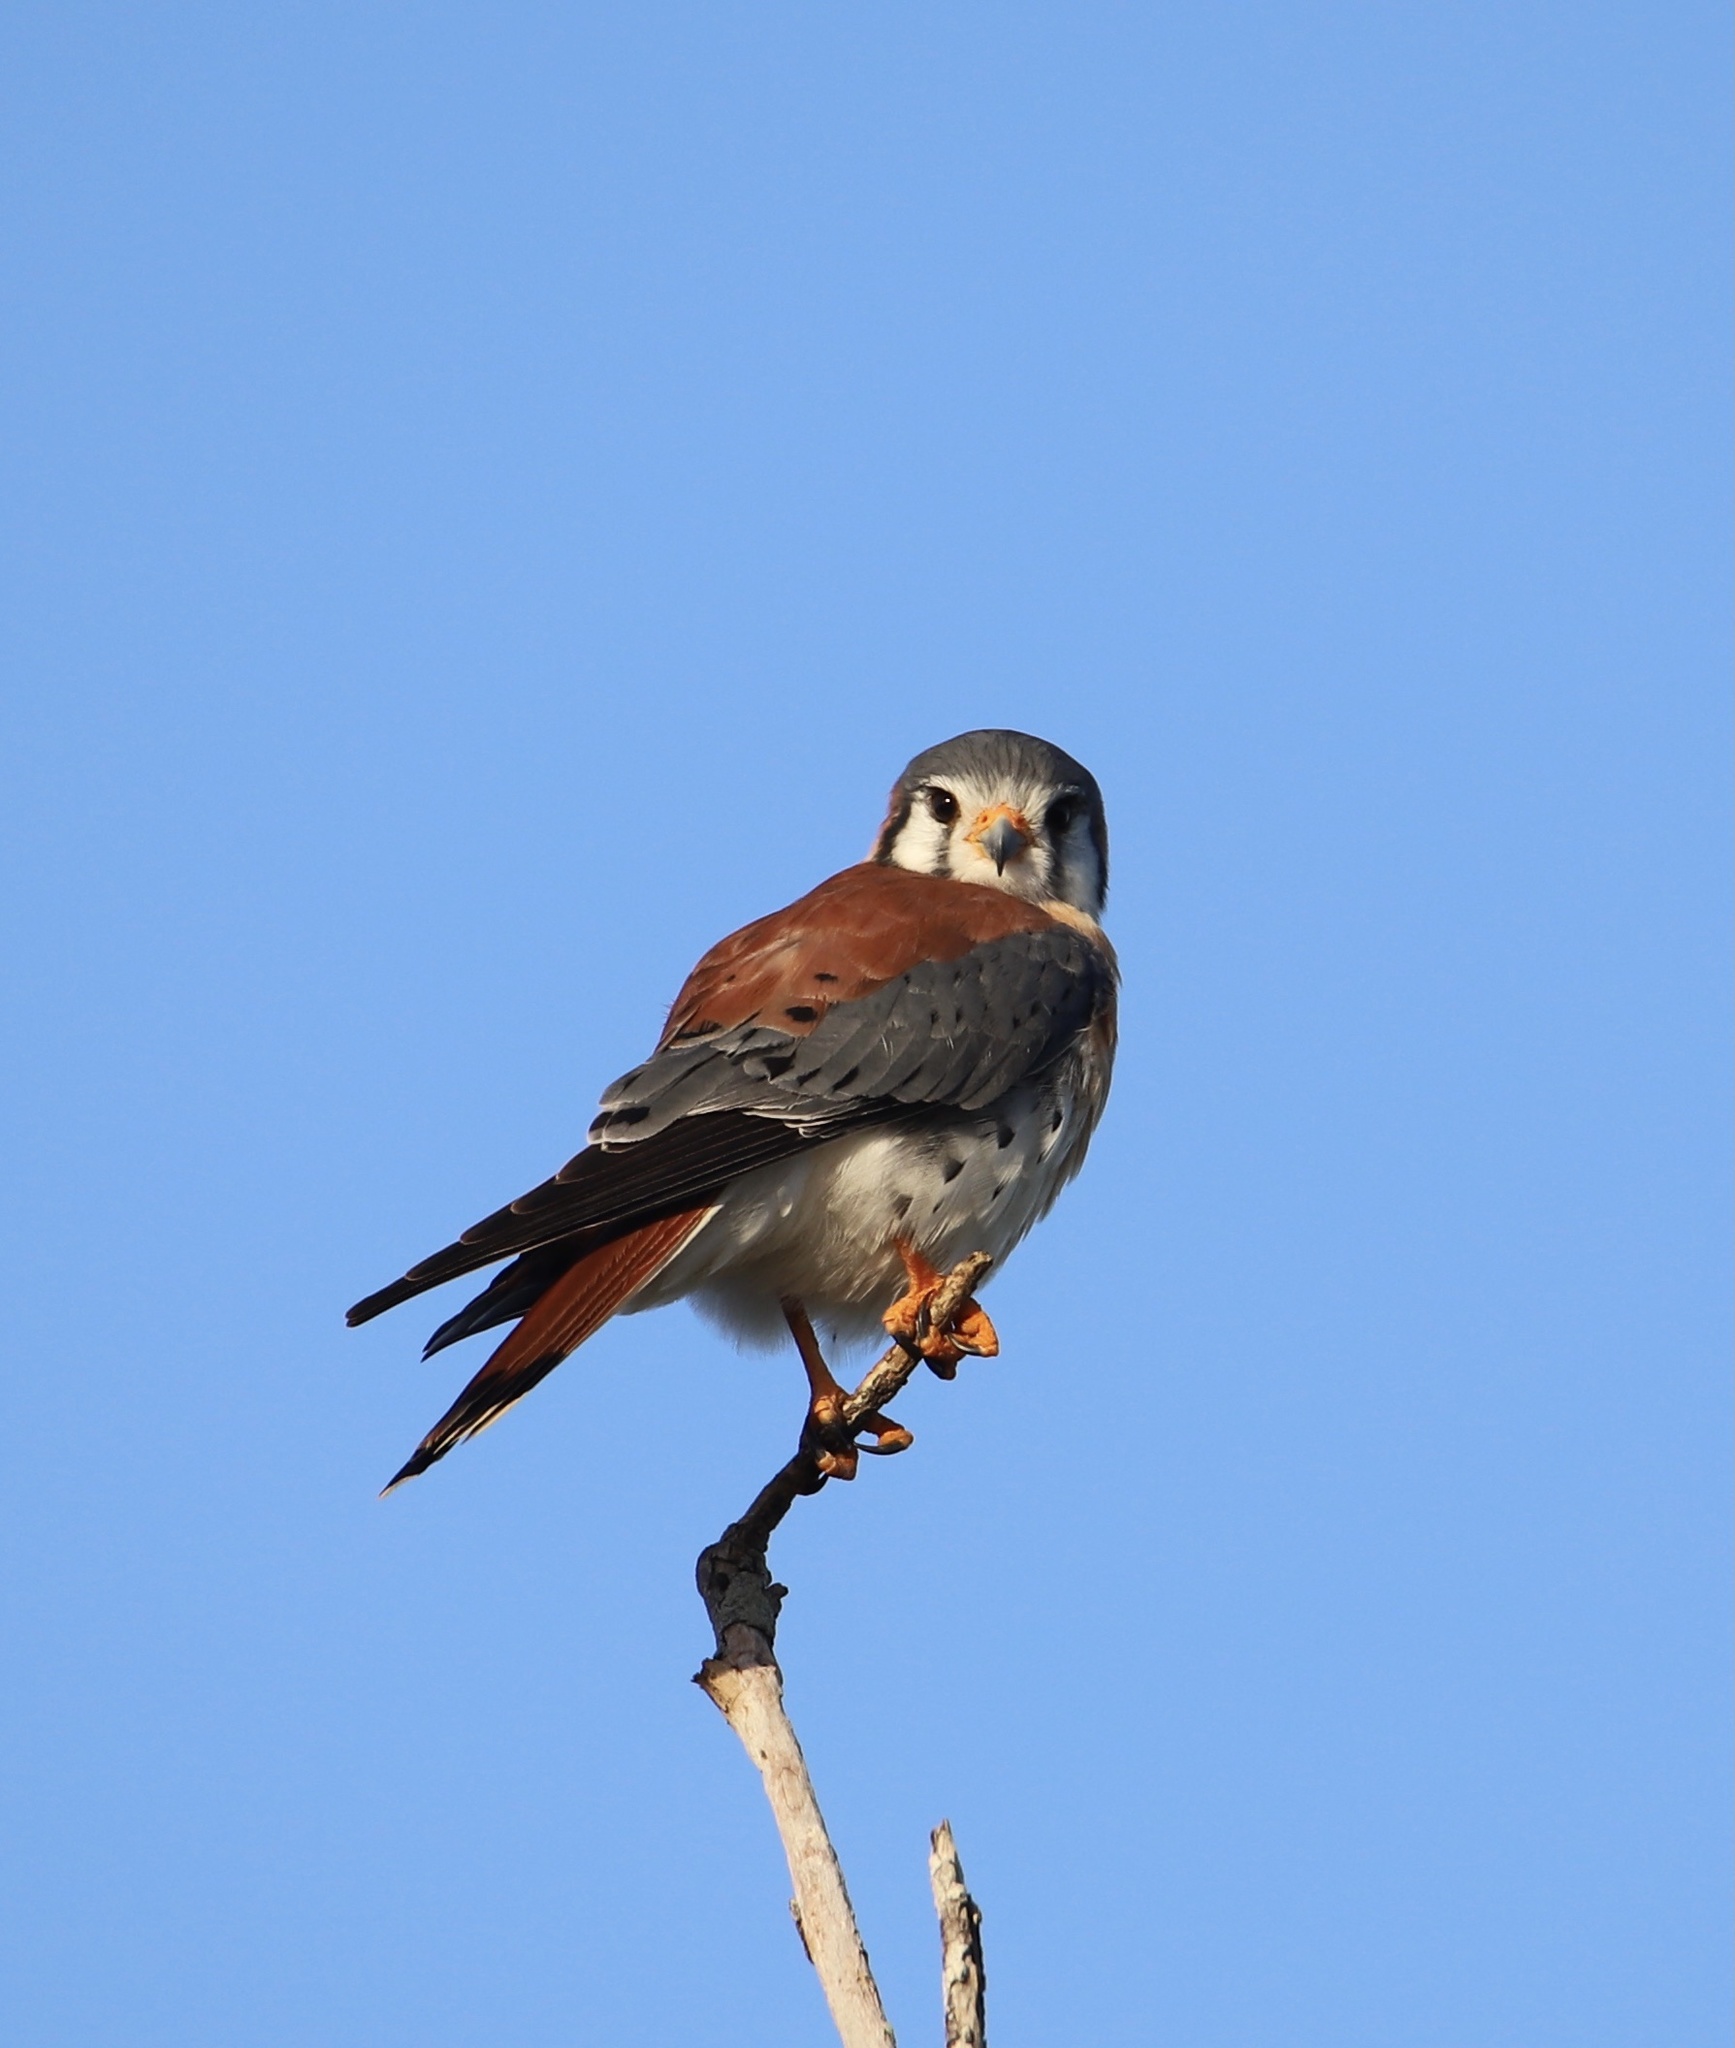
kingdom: Animalia
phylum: Chordata
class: Aves
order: Falconiformes
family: Falconidae
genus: Falco
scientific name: Falco sparverius
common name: American kestrel
